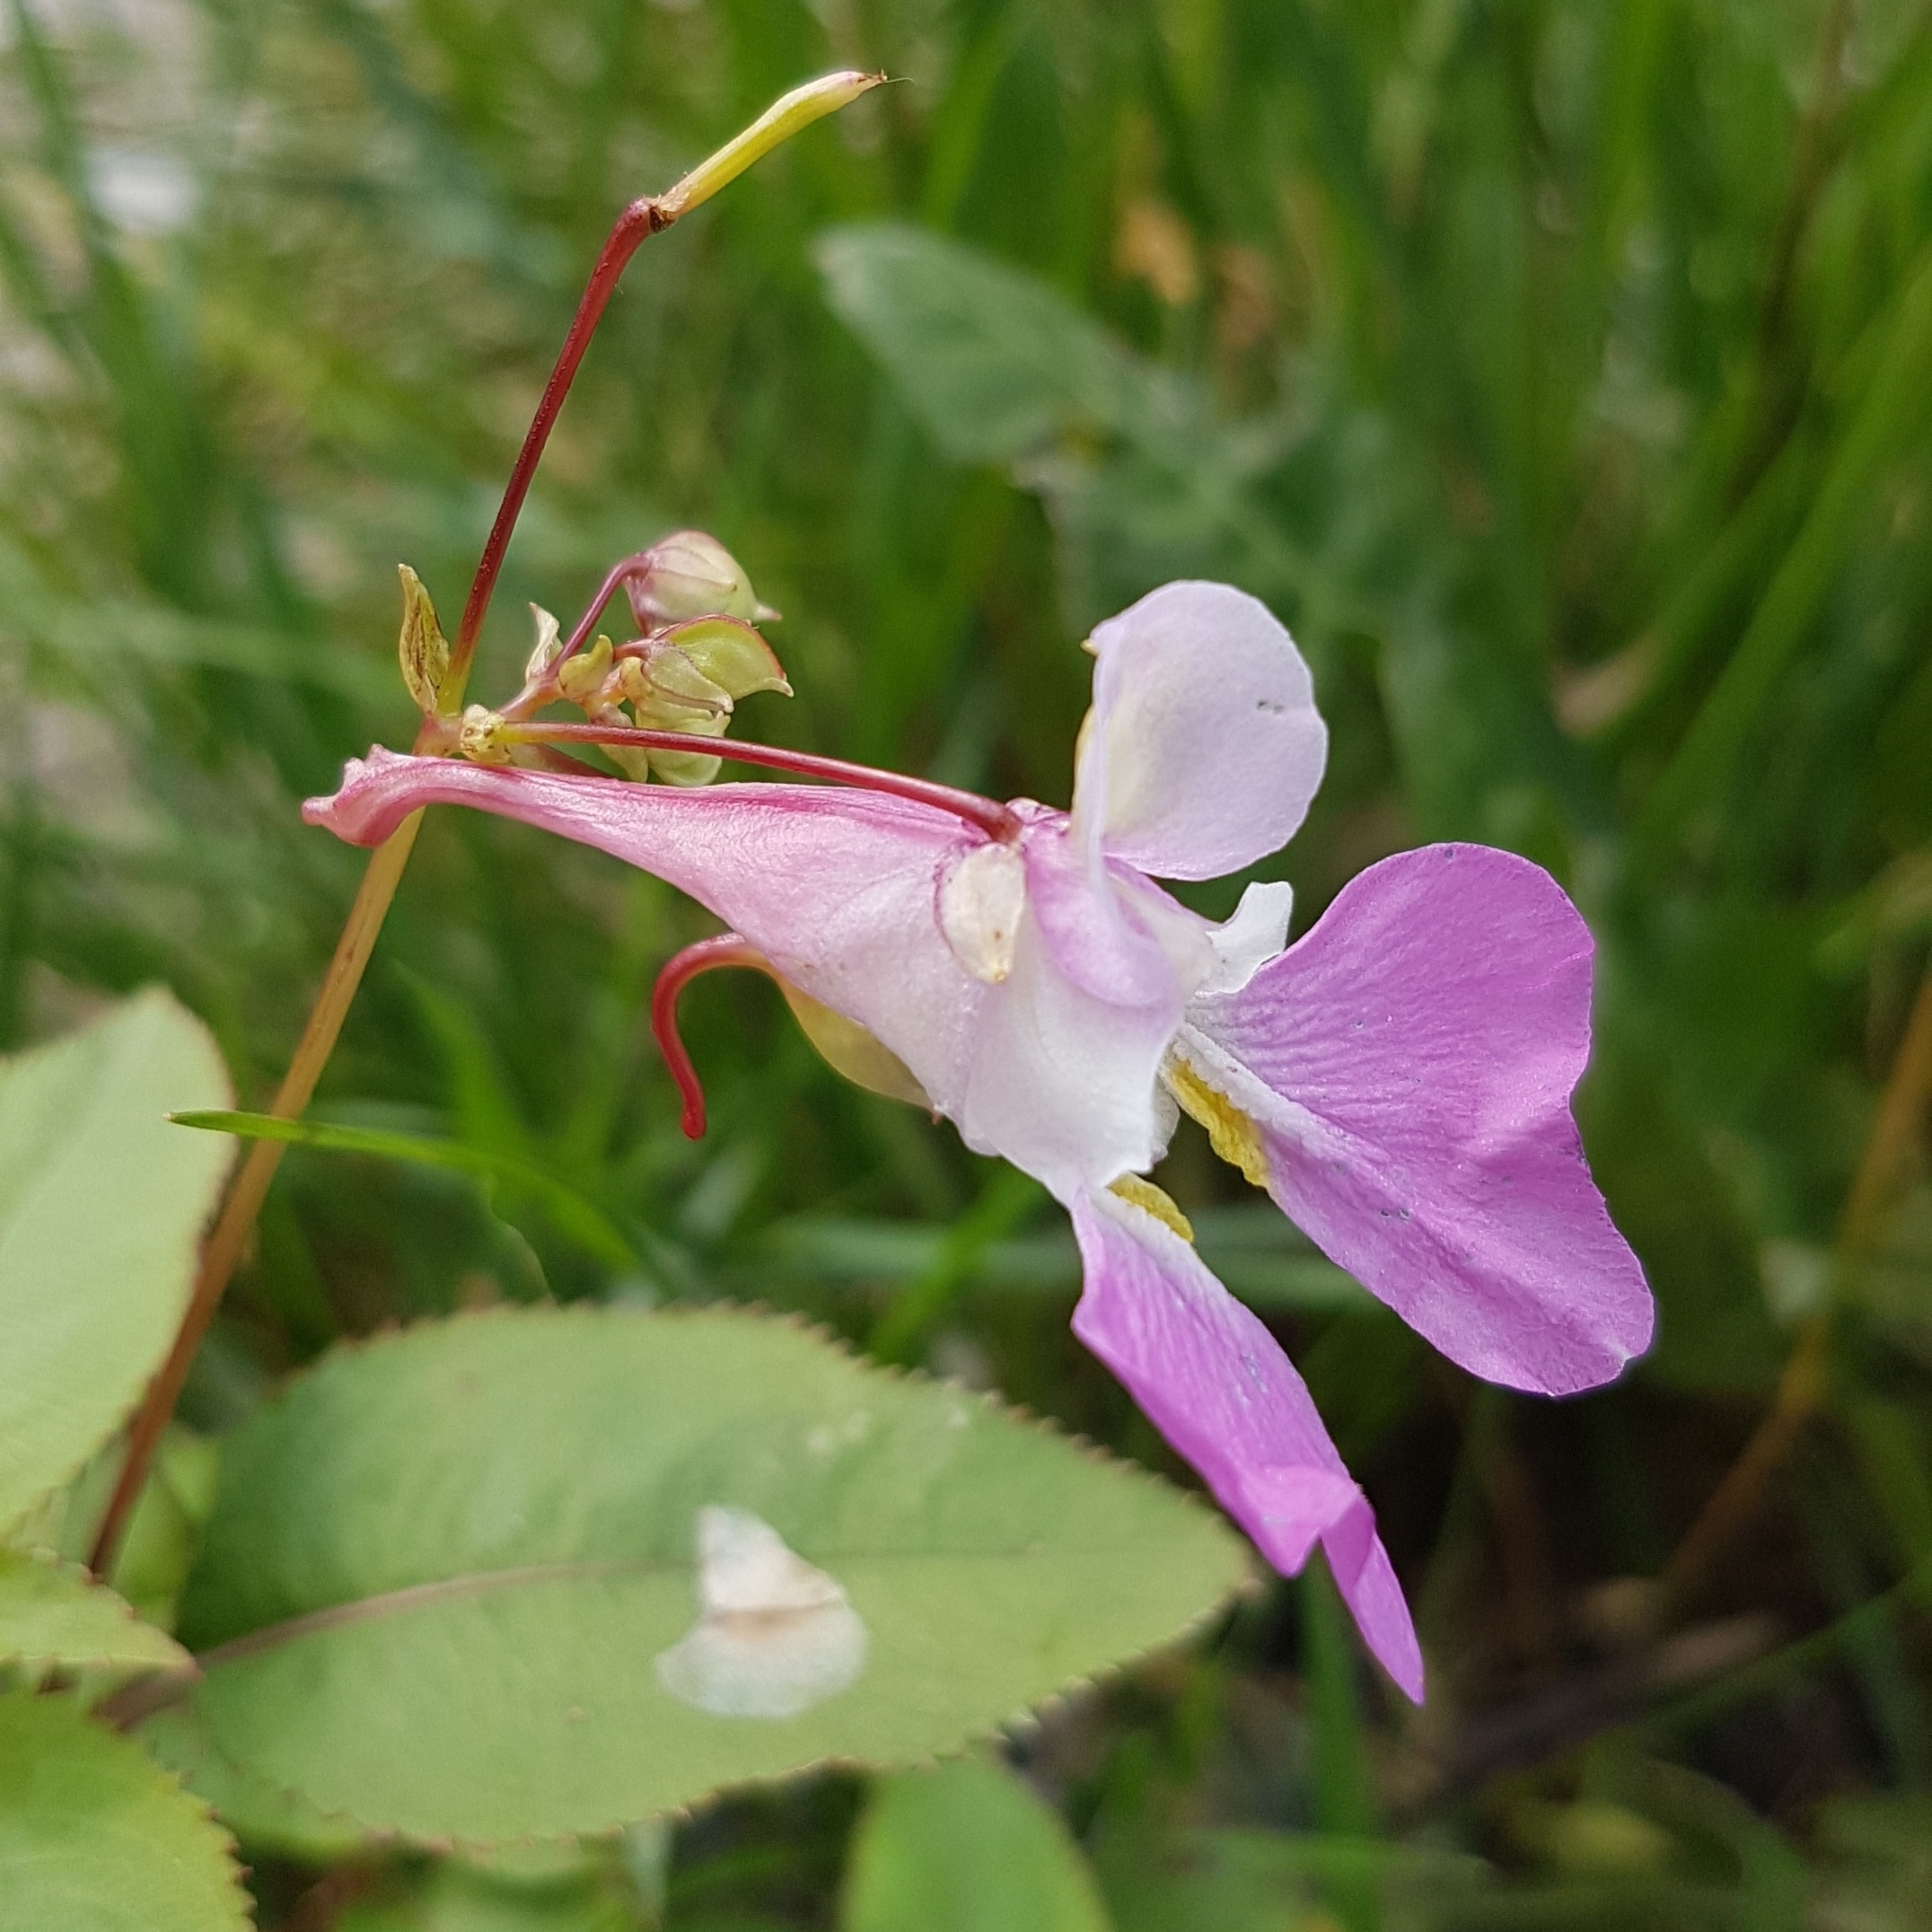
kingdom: Plantae
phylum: Tracheophyta
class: Magnoliopsida
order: Ericales
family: Balsaminaceae
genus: Impatiens
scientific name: Impatiens balfourii
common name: Balfour's touch-me-not
